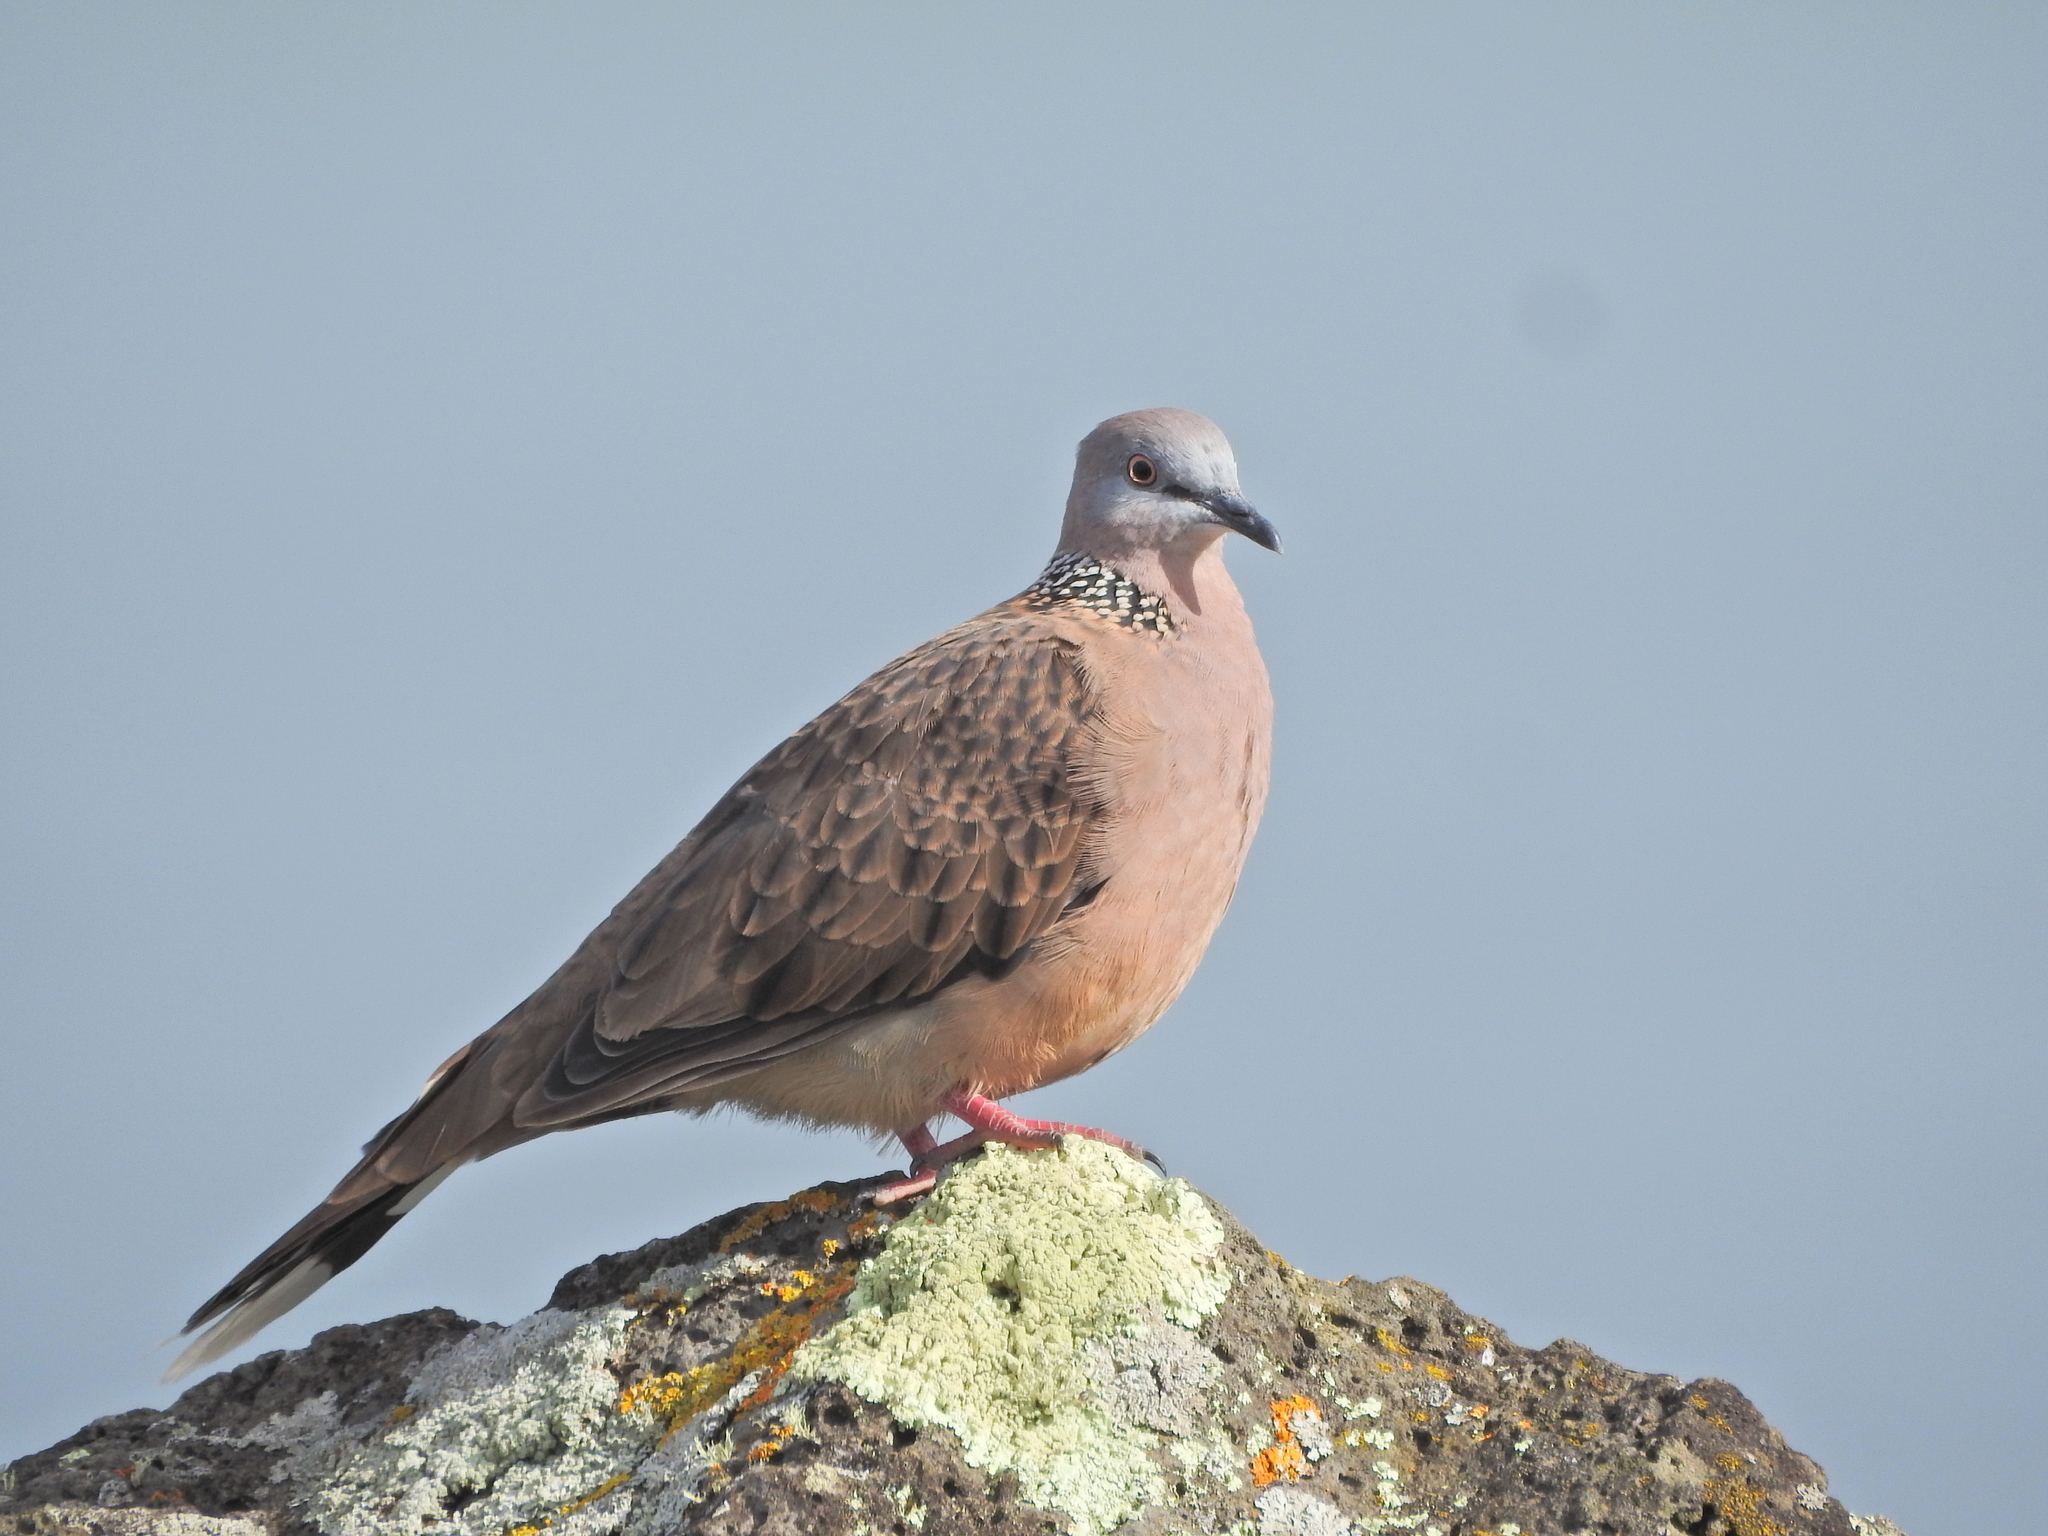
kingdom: Animalia
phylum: Chordata
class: Aves
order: Columbiformes
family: Columbidae
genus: Spilopelia
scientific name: Spilopelia chinensis
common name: Spotted dove
